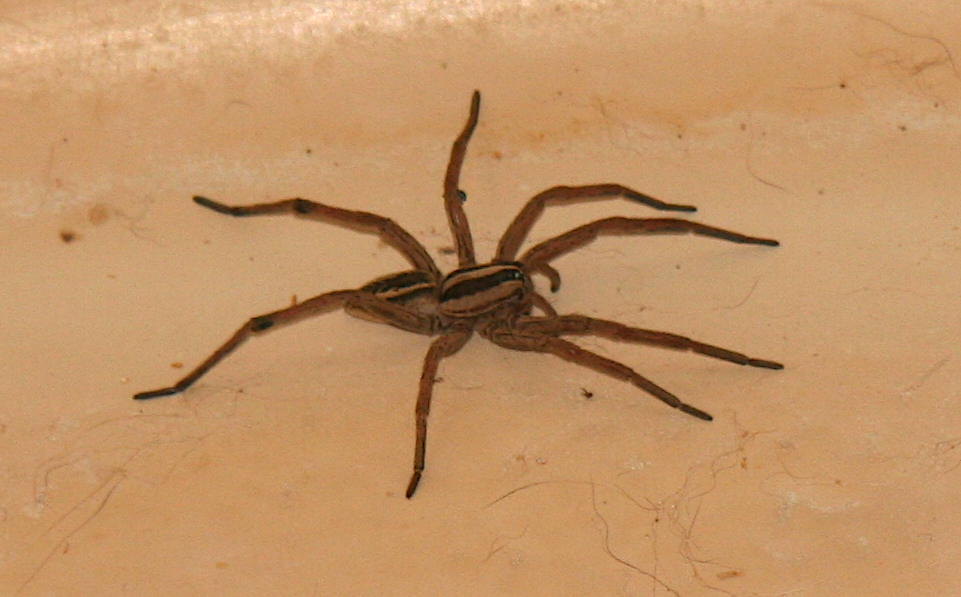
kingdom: Animalia
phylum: Arthropoda
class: Arachnida
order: Araneae
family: Lycosidae
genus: Rabidosa
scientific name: Rabidosa rabida
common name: Rabid wolf spider
